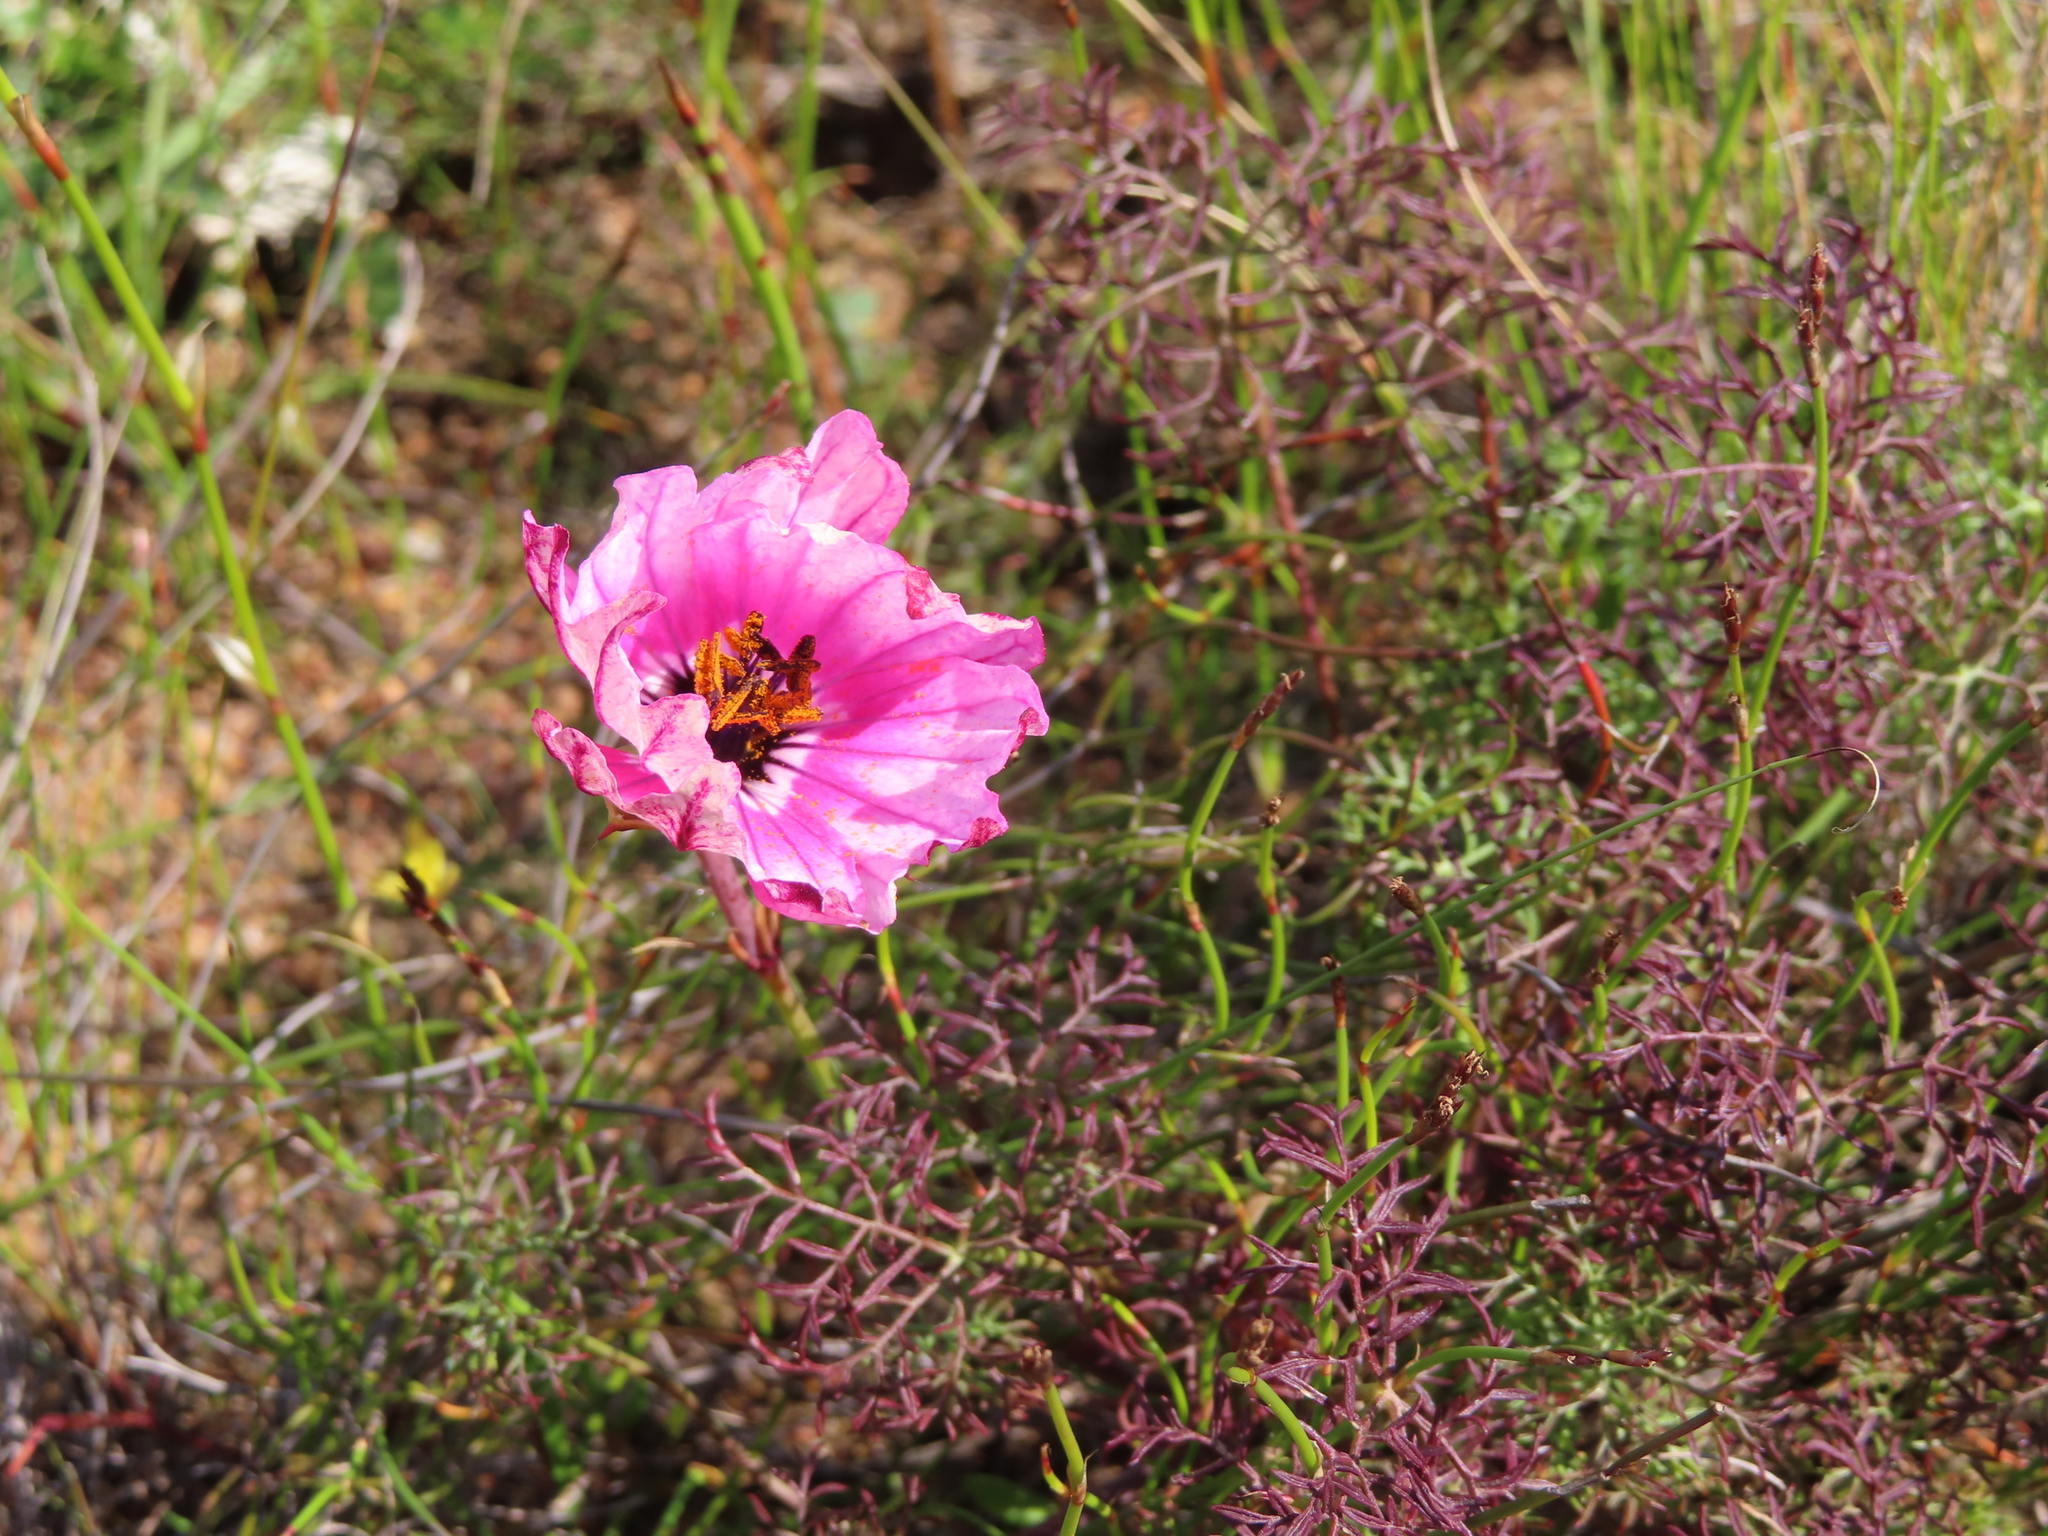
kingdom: Plantae
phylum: Tracheophyta
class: Magnoliopsida
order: Geraniales
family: Geraniaceae
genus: Monsonia
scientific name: Monsonia speciosa
